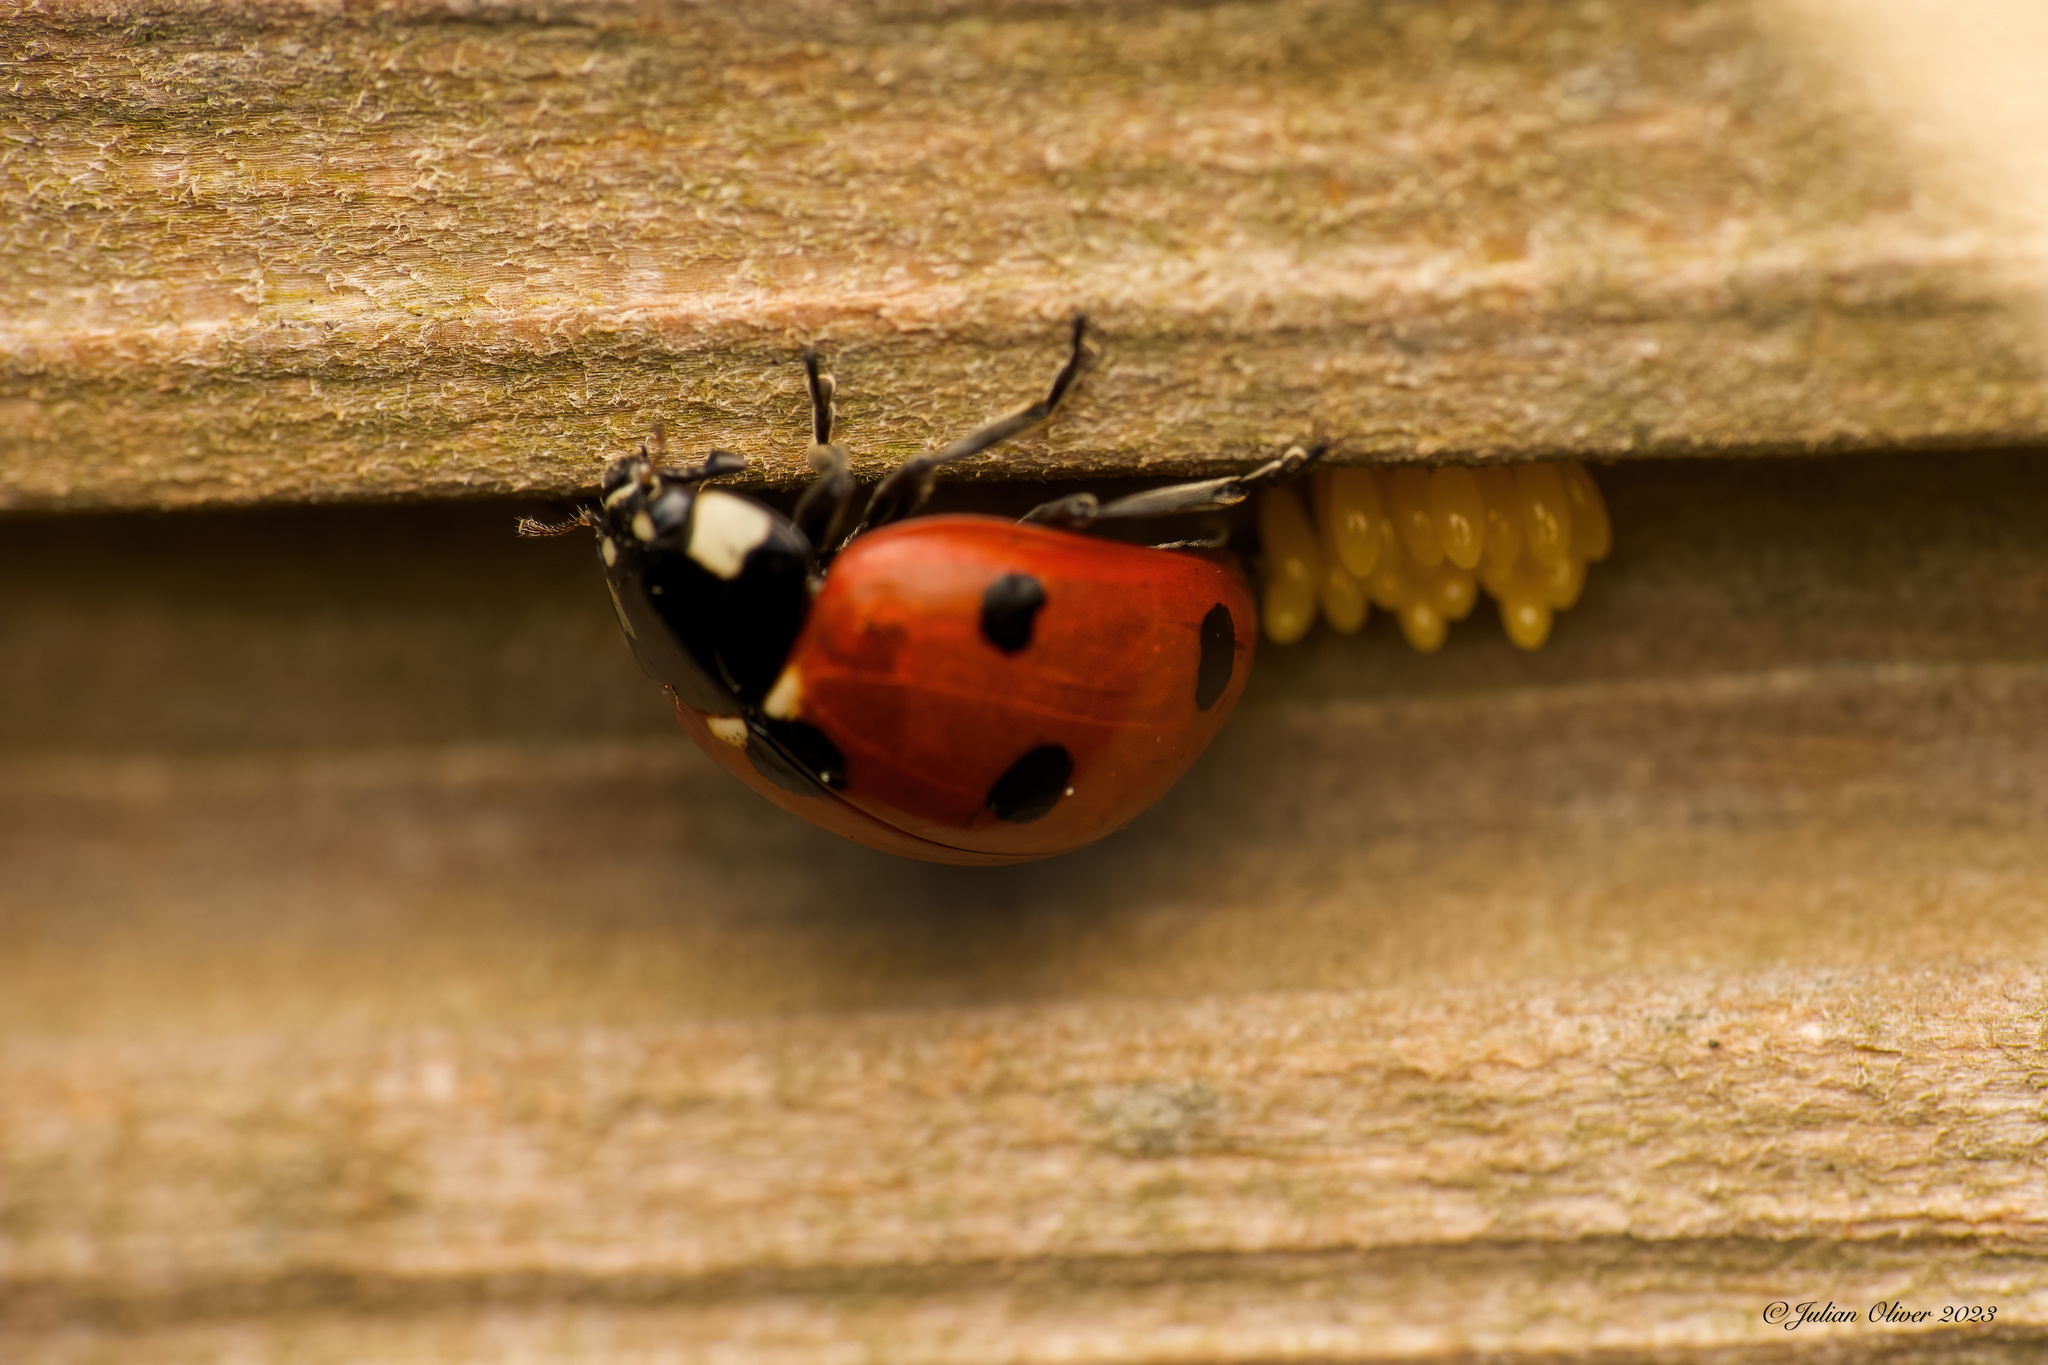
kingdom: Animalia
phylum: Arthropoda
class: Insecta
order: Coleoptera
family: Coccinellidae
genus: Coccinella
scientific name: Coccinella septempunctata
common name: Sevenspotted lady beetle
